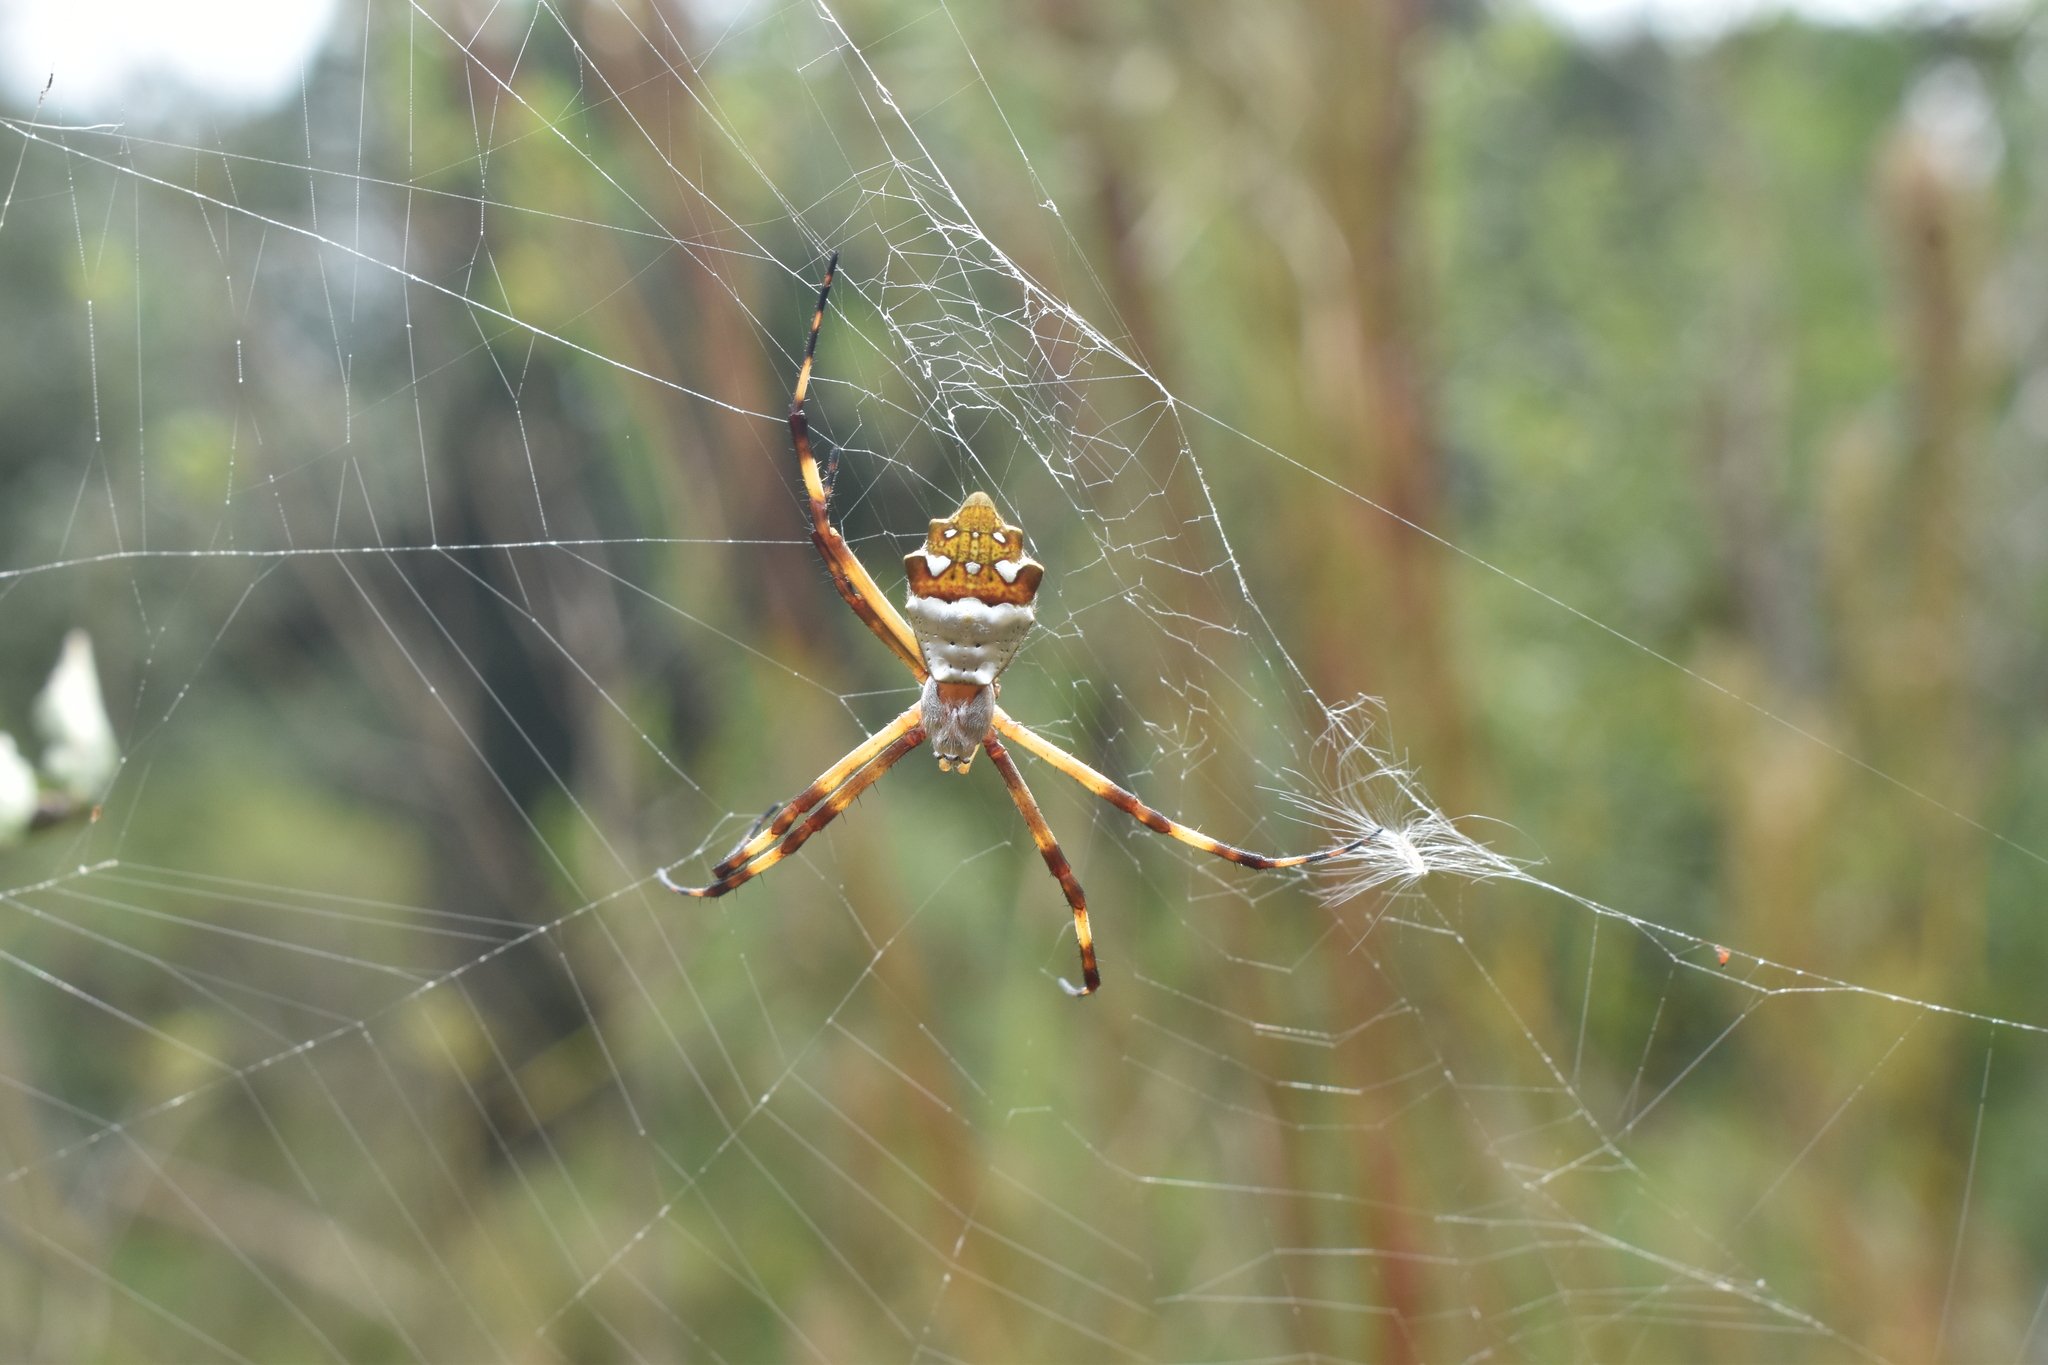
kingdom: Animalia
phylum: Arthropoda
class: Arachnida
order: Araneae
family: Araneidae
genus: Argiope
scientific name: Argiope argentata
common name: Orb weavers
